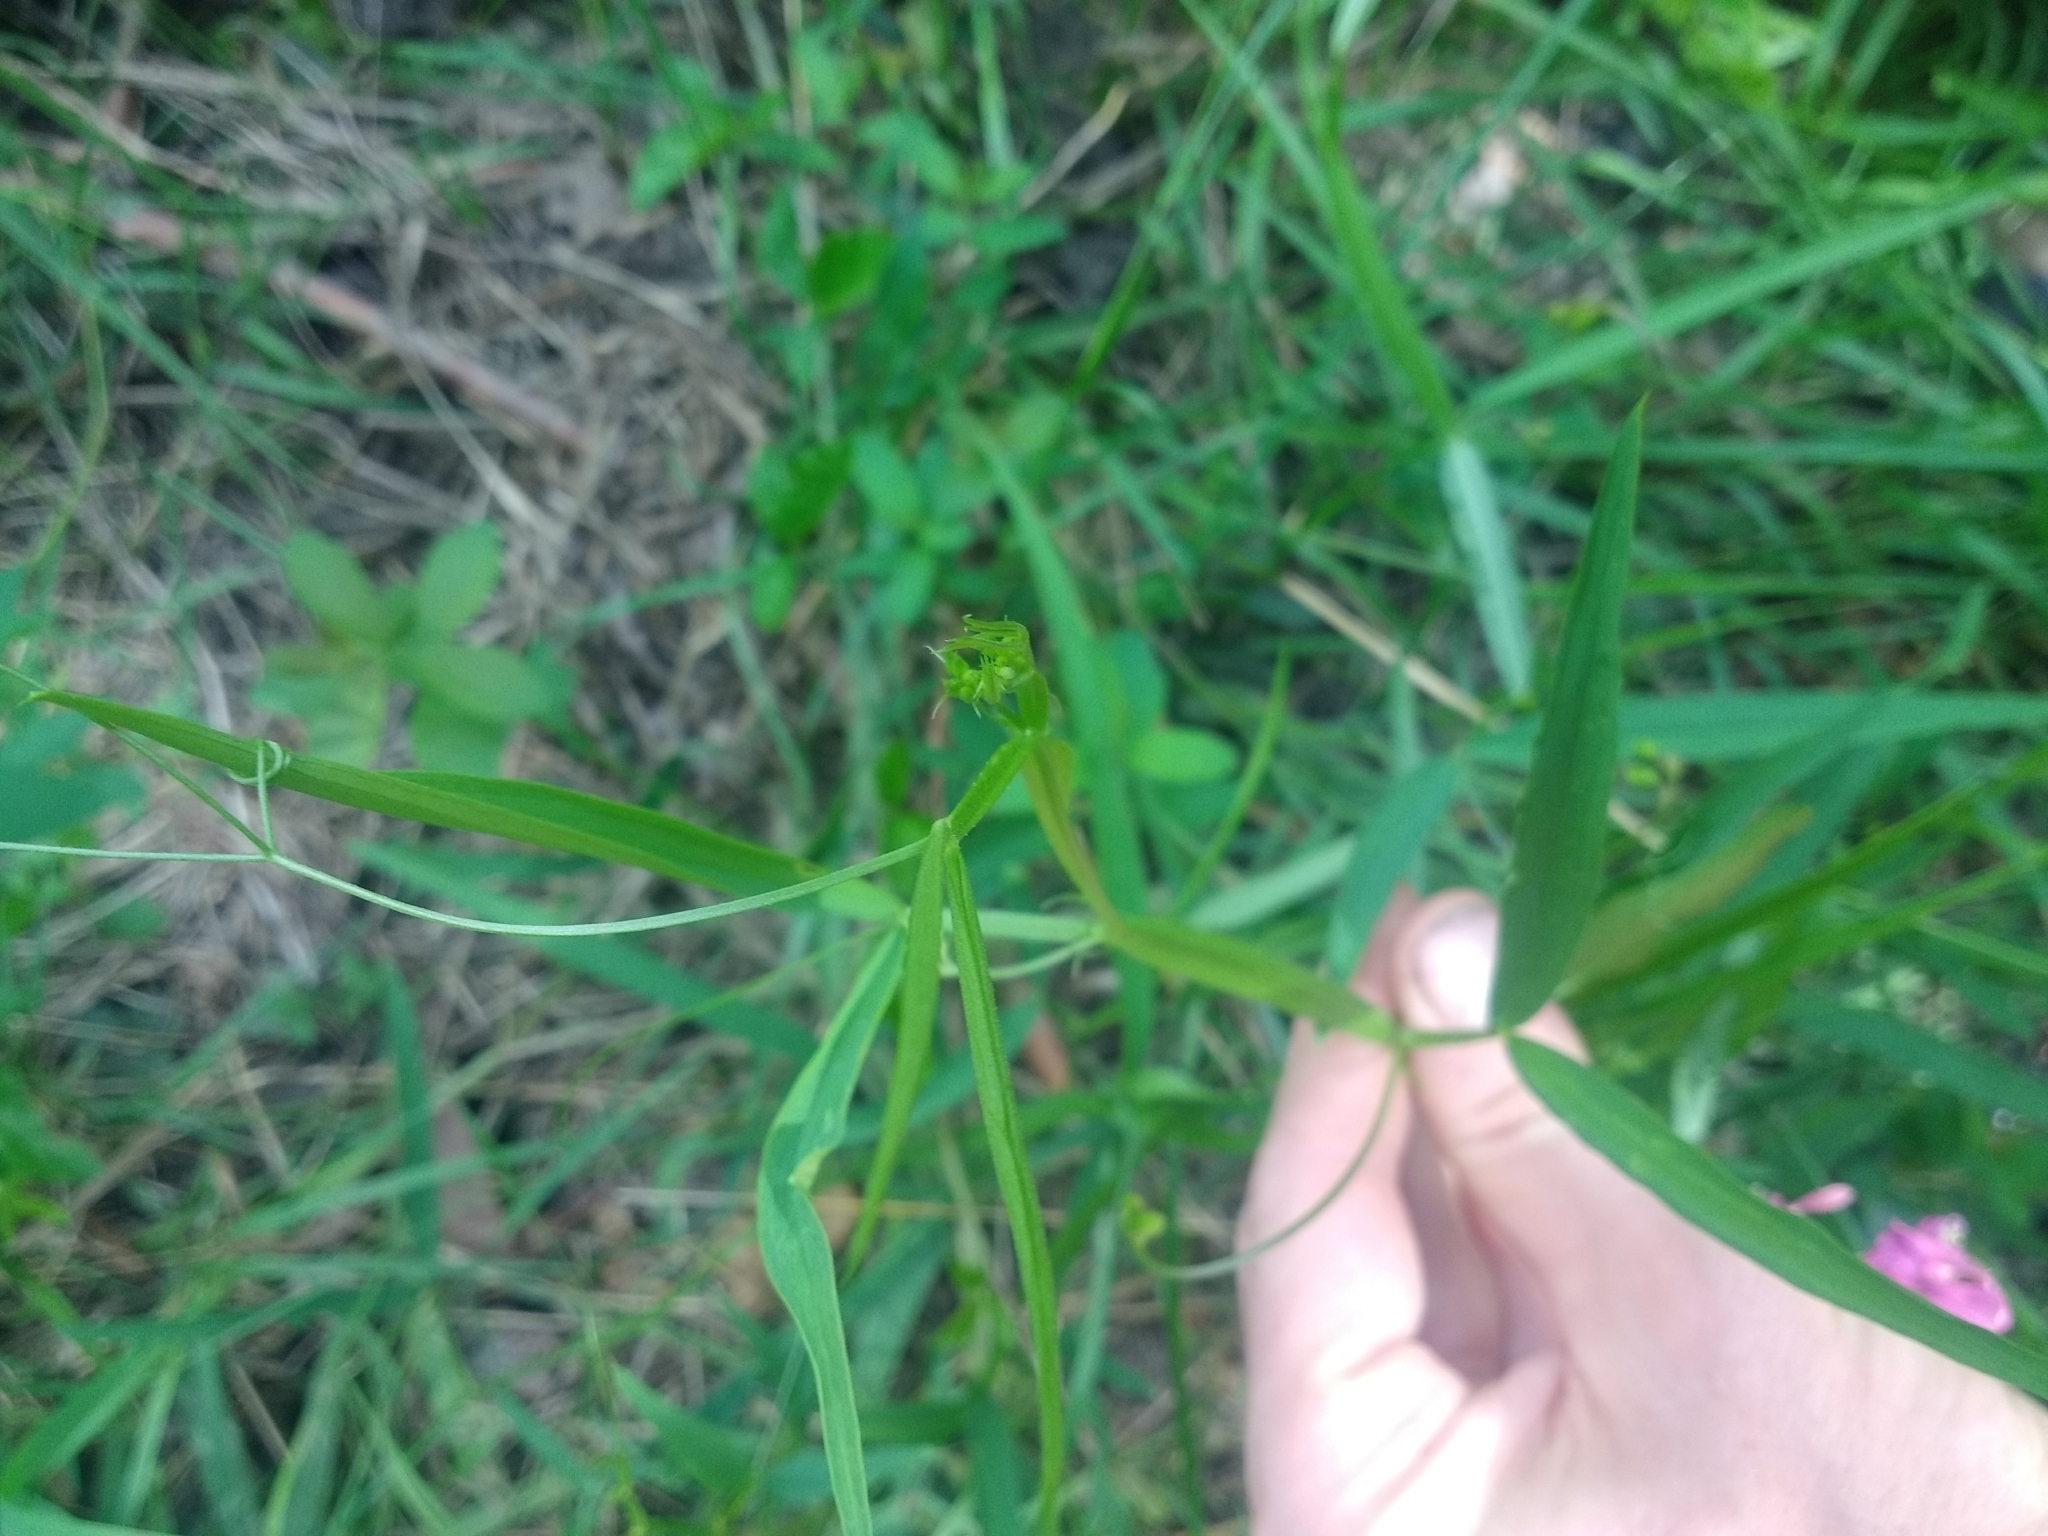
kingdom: Plantae
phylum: Tracheophyta
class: Magnoliopsida
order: Fabales
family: Fabaceae
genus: Lathyrus
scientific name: Lathyrus sylvestris
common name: Flat pea
